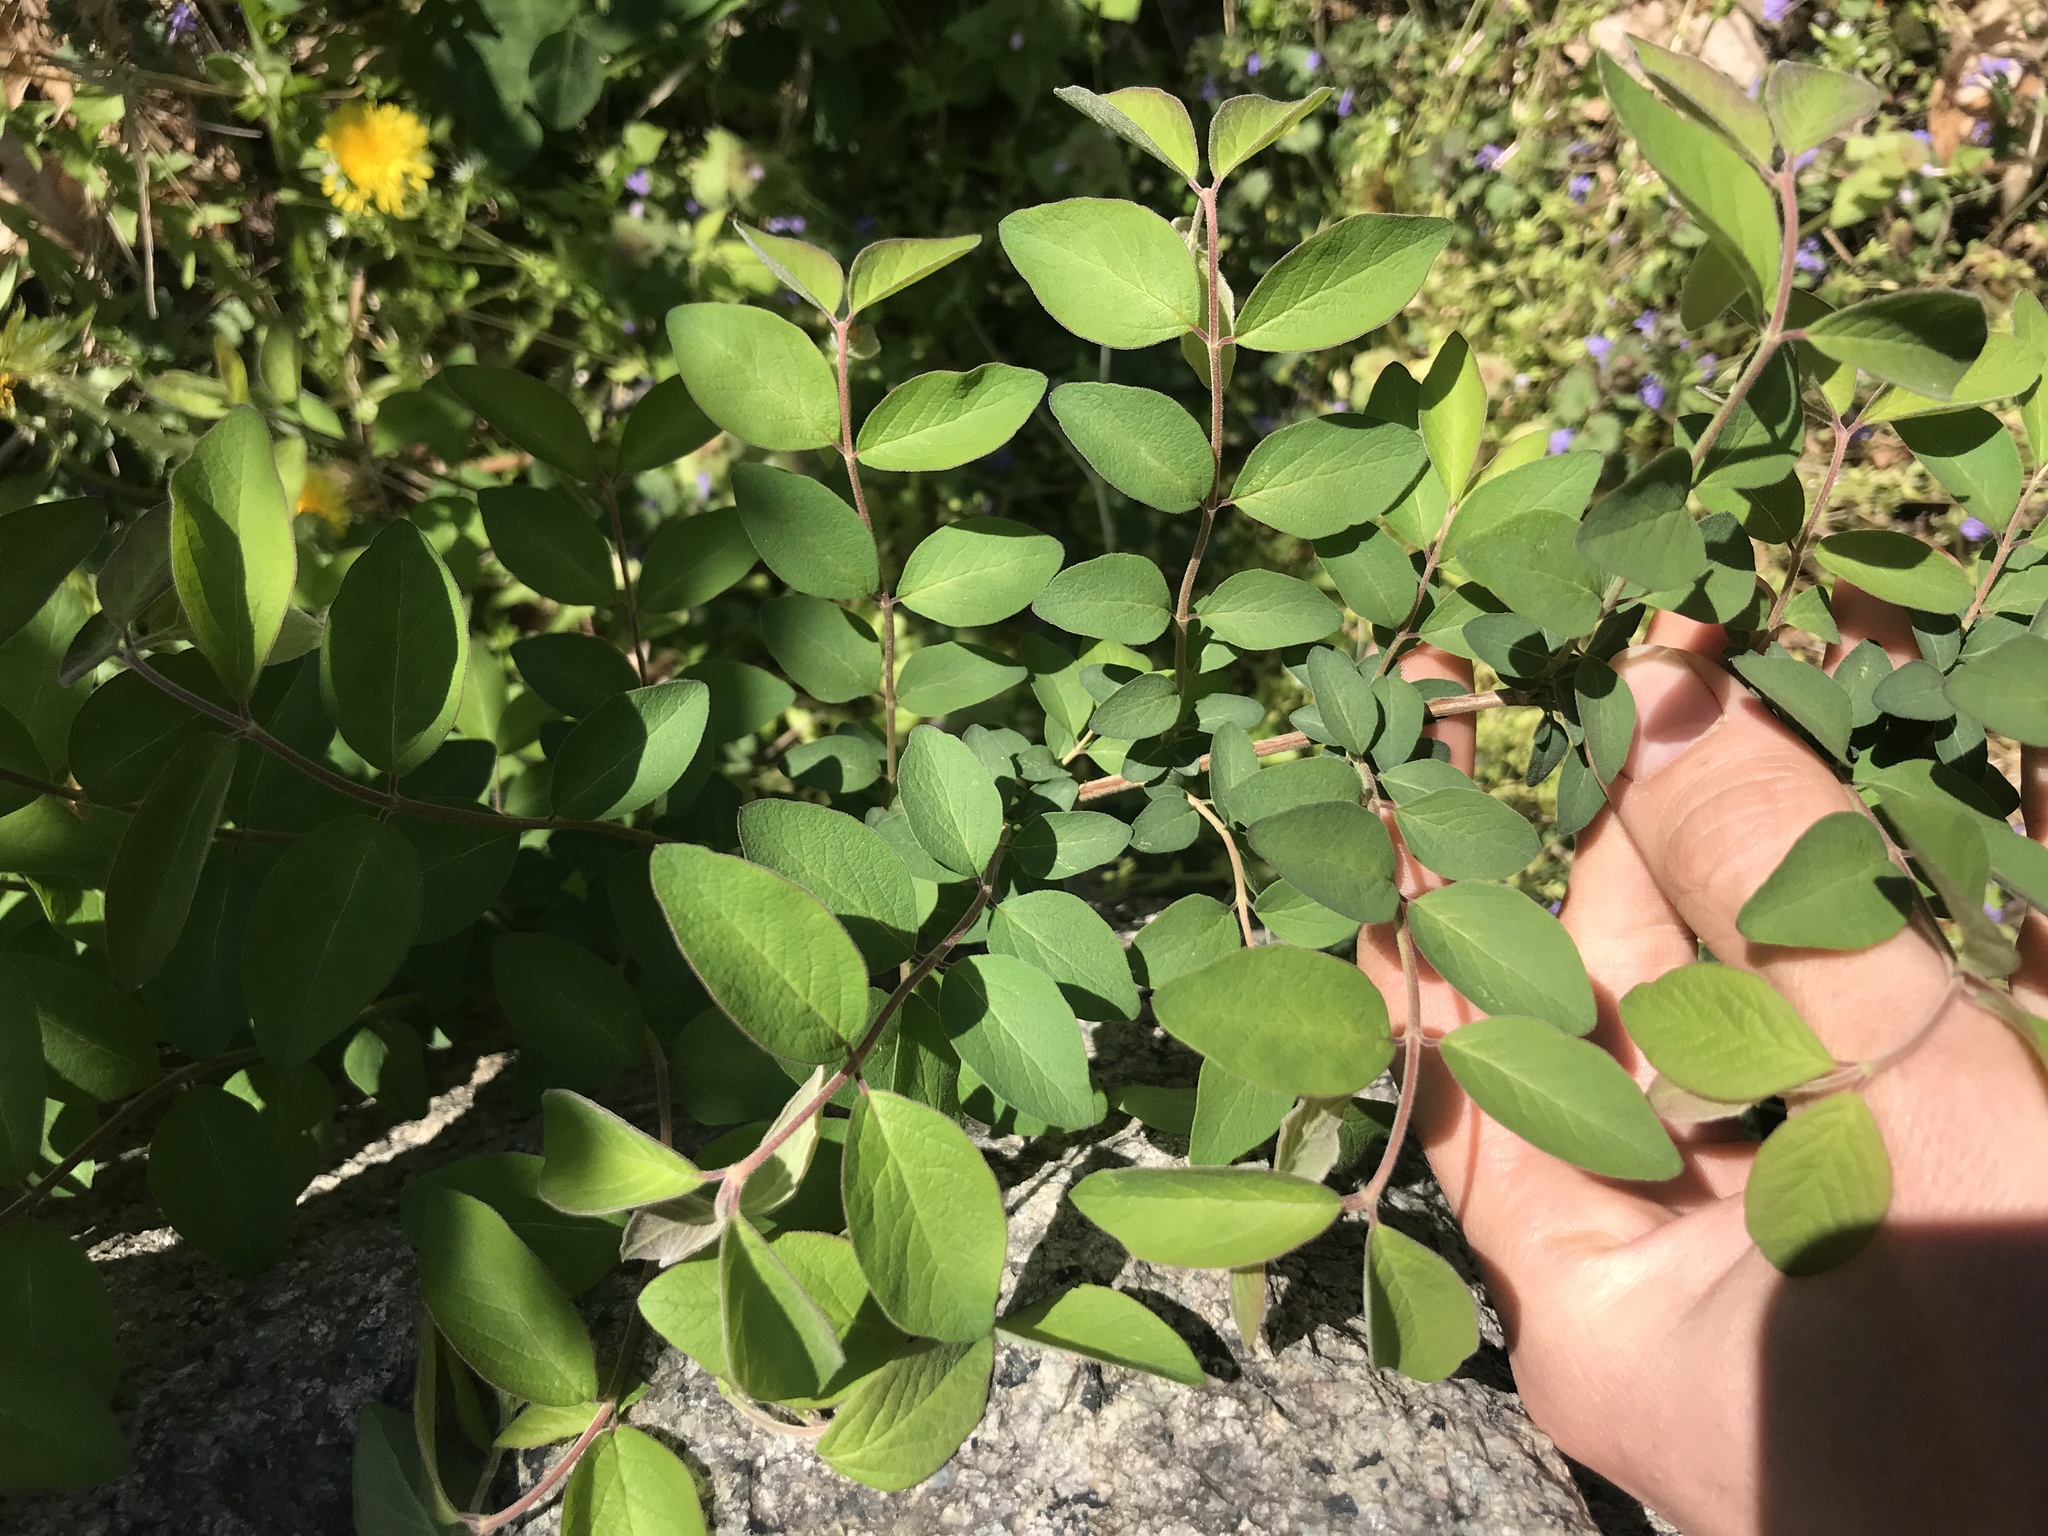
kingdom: Plantae
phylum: Tracheophyta
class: Magnoliopsida
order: Dipsacales
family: Caprifoliaceae
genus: Symphoricarpos
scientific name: Symphoricarpos orbiculatus
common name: Coralberry
